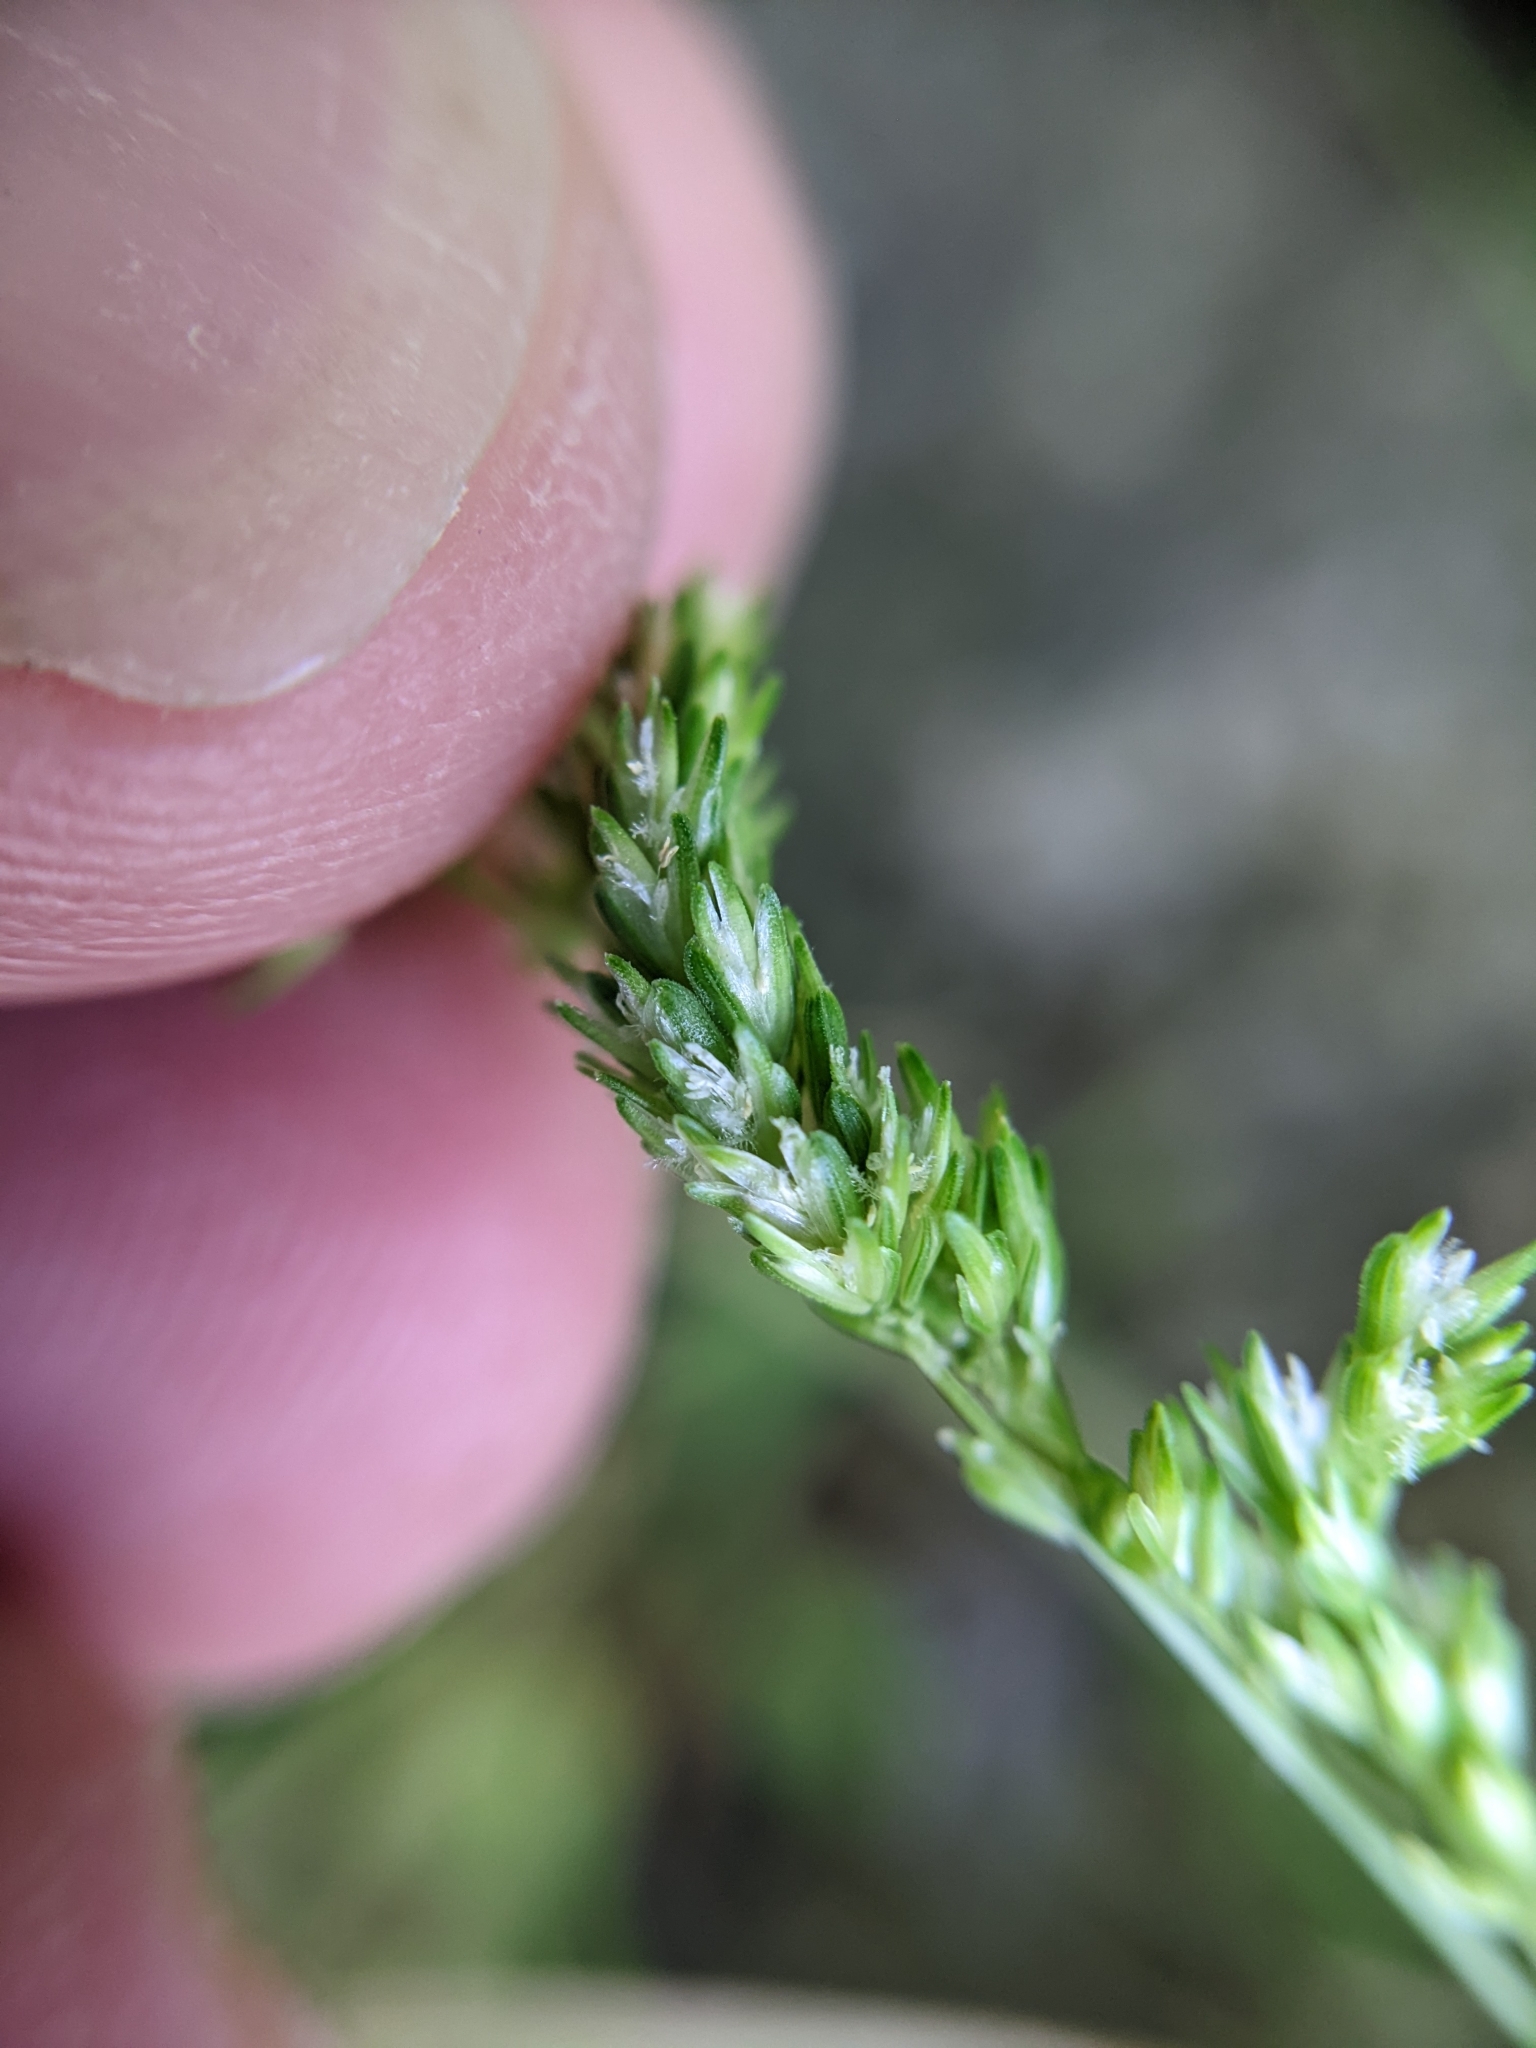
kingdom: Plantae
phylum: Tracheophyta
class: Liliopsida
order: Poales
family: Poaceae
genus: Sphenopholis
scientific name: Sphenopholis obtusata
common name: Prairie grass
